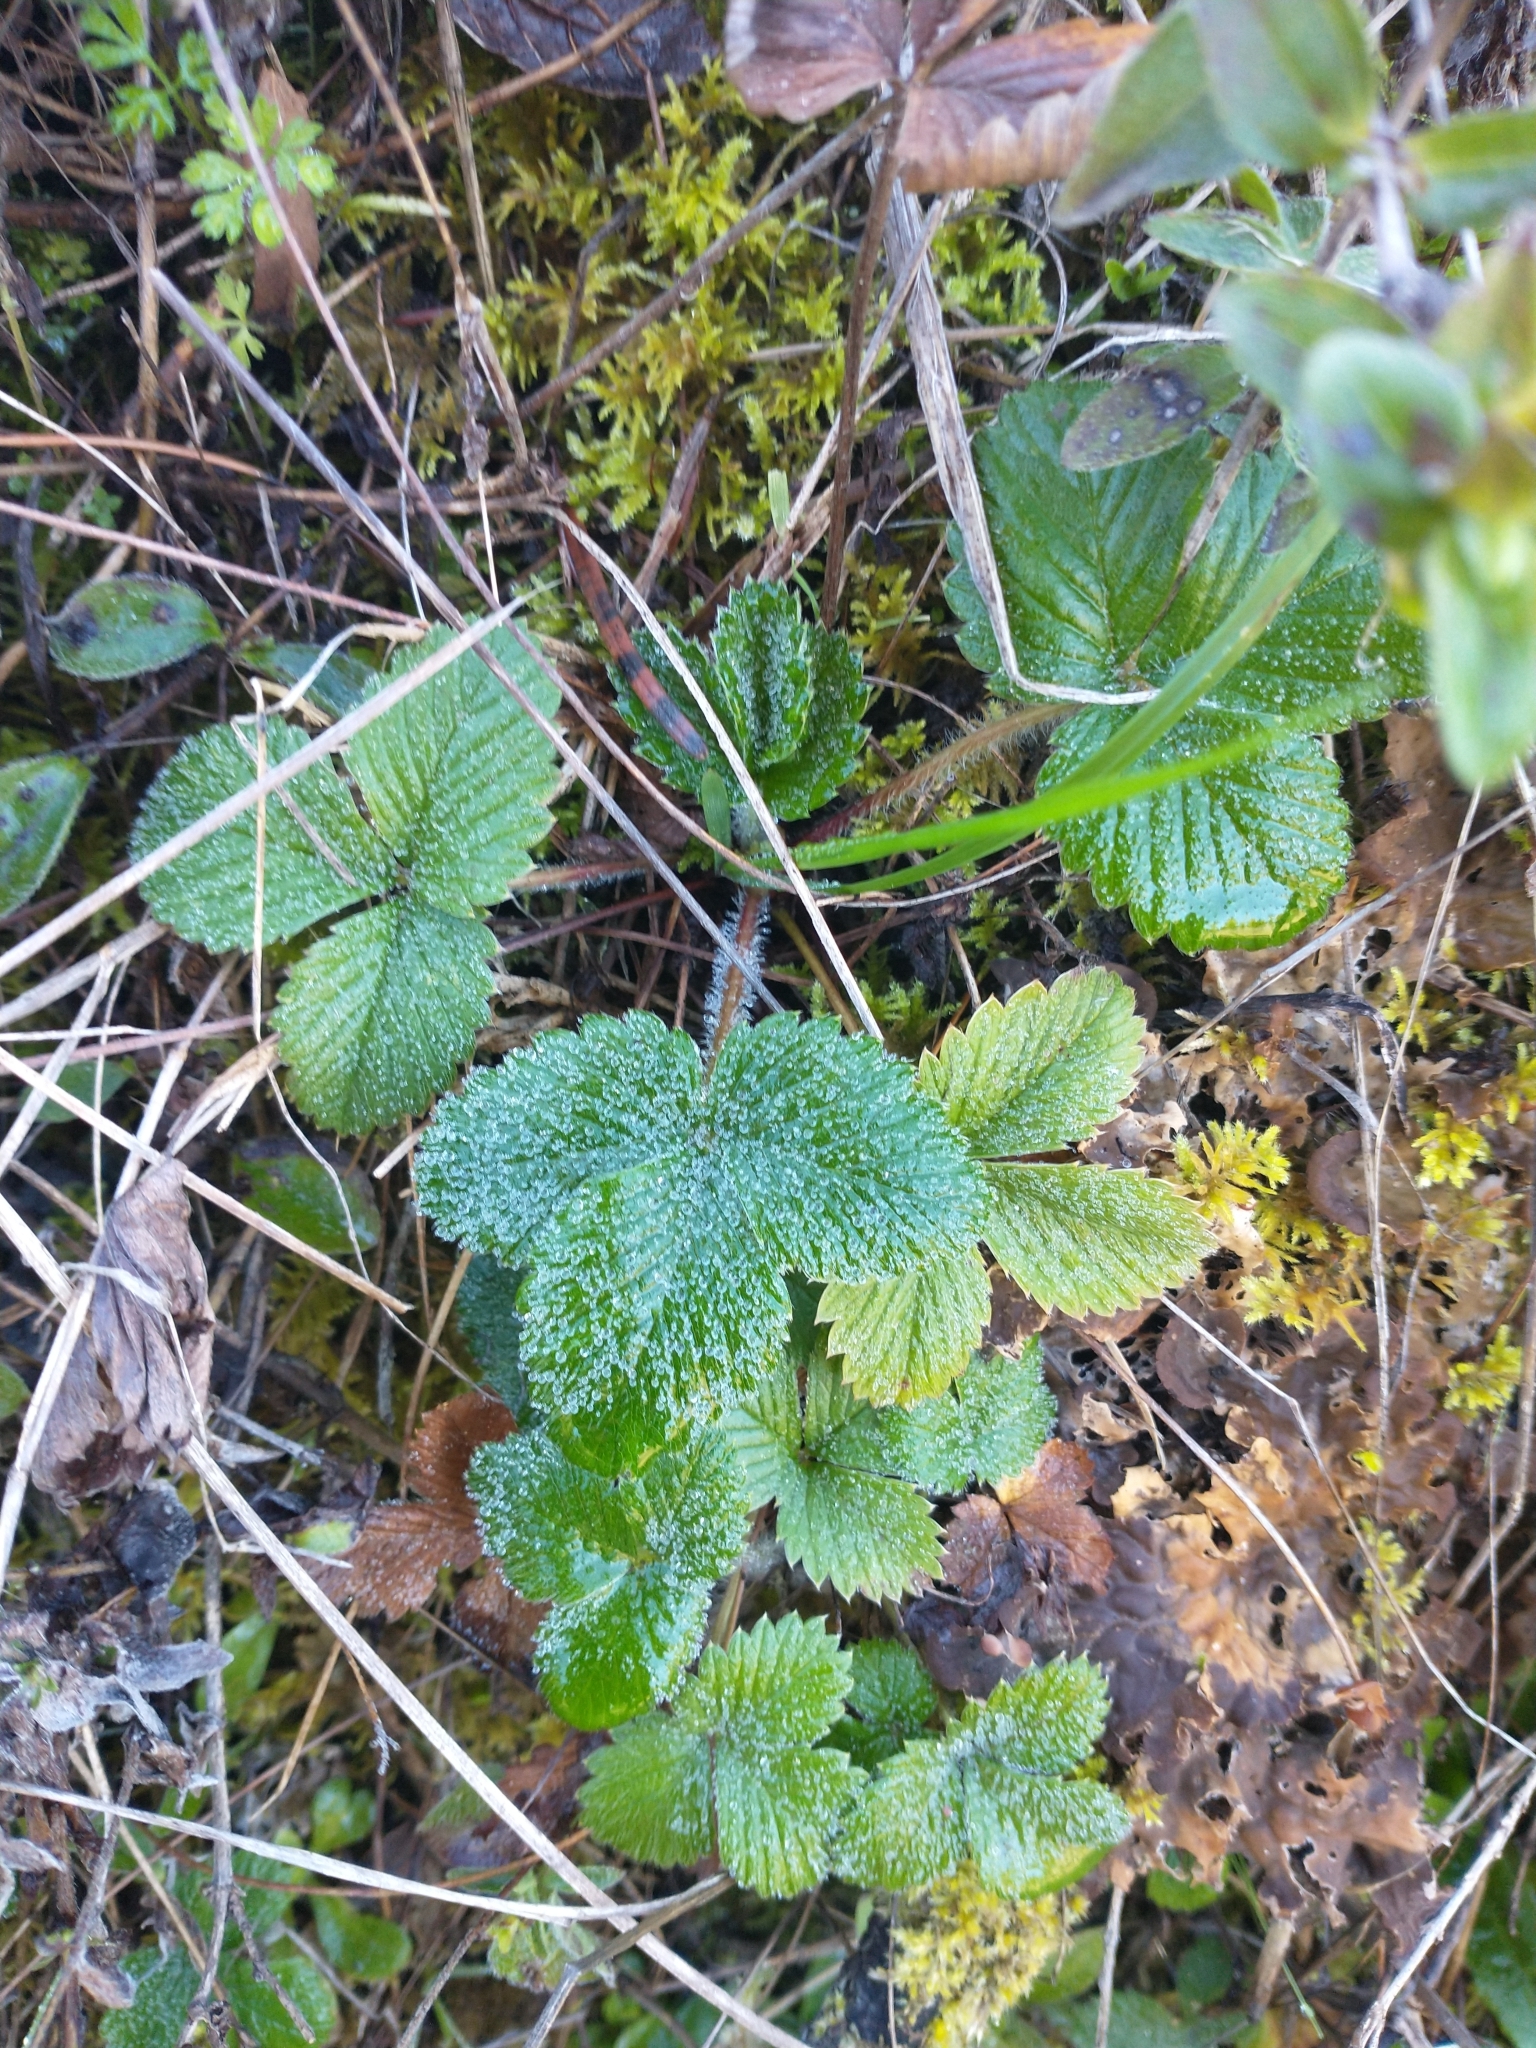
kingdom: Plantae
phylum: Tracheophyta
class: Magnoliopsida
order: Rosales
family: Rosaceae
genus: Fragaria
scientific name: Fragaria vesca
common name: Wild strawberry
